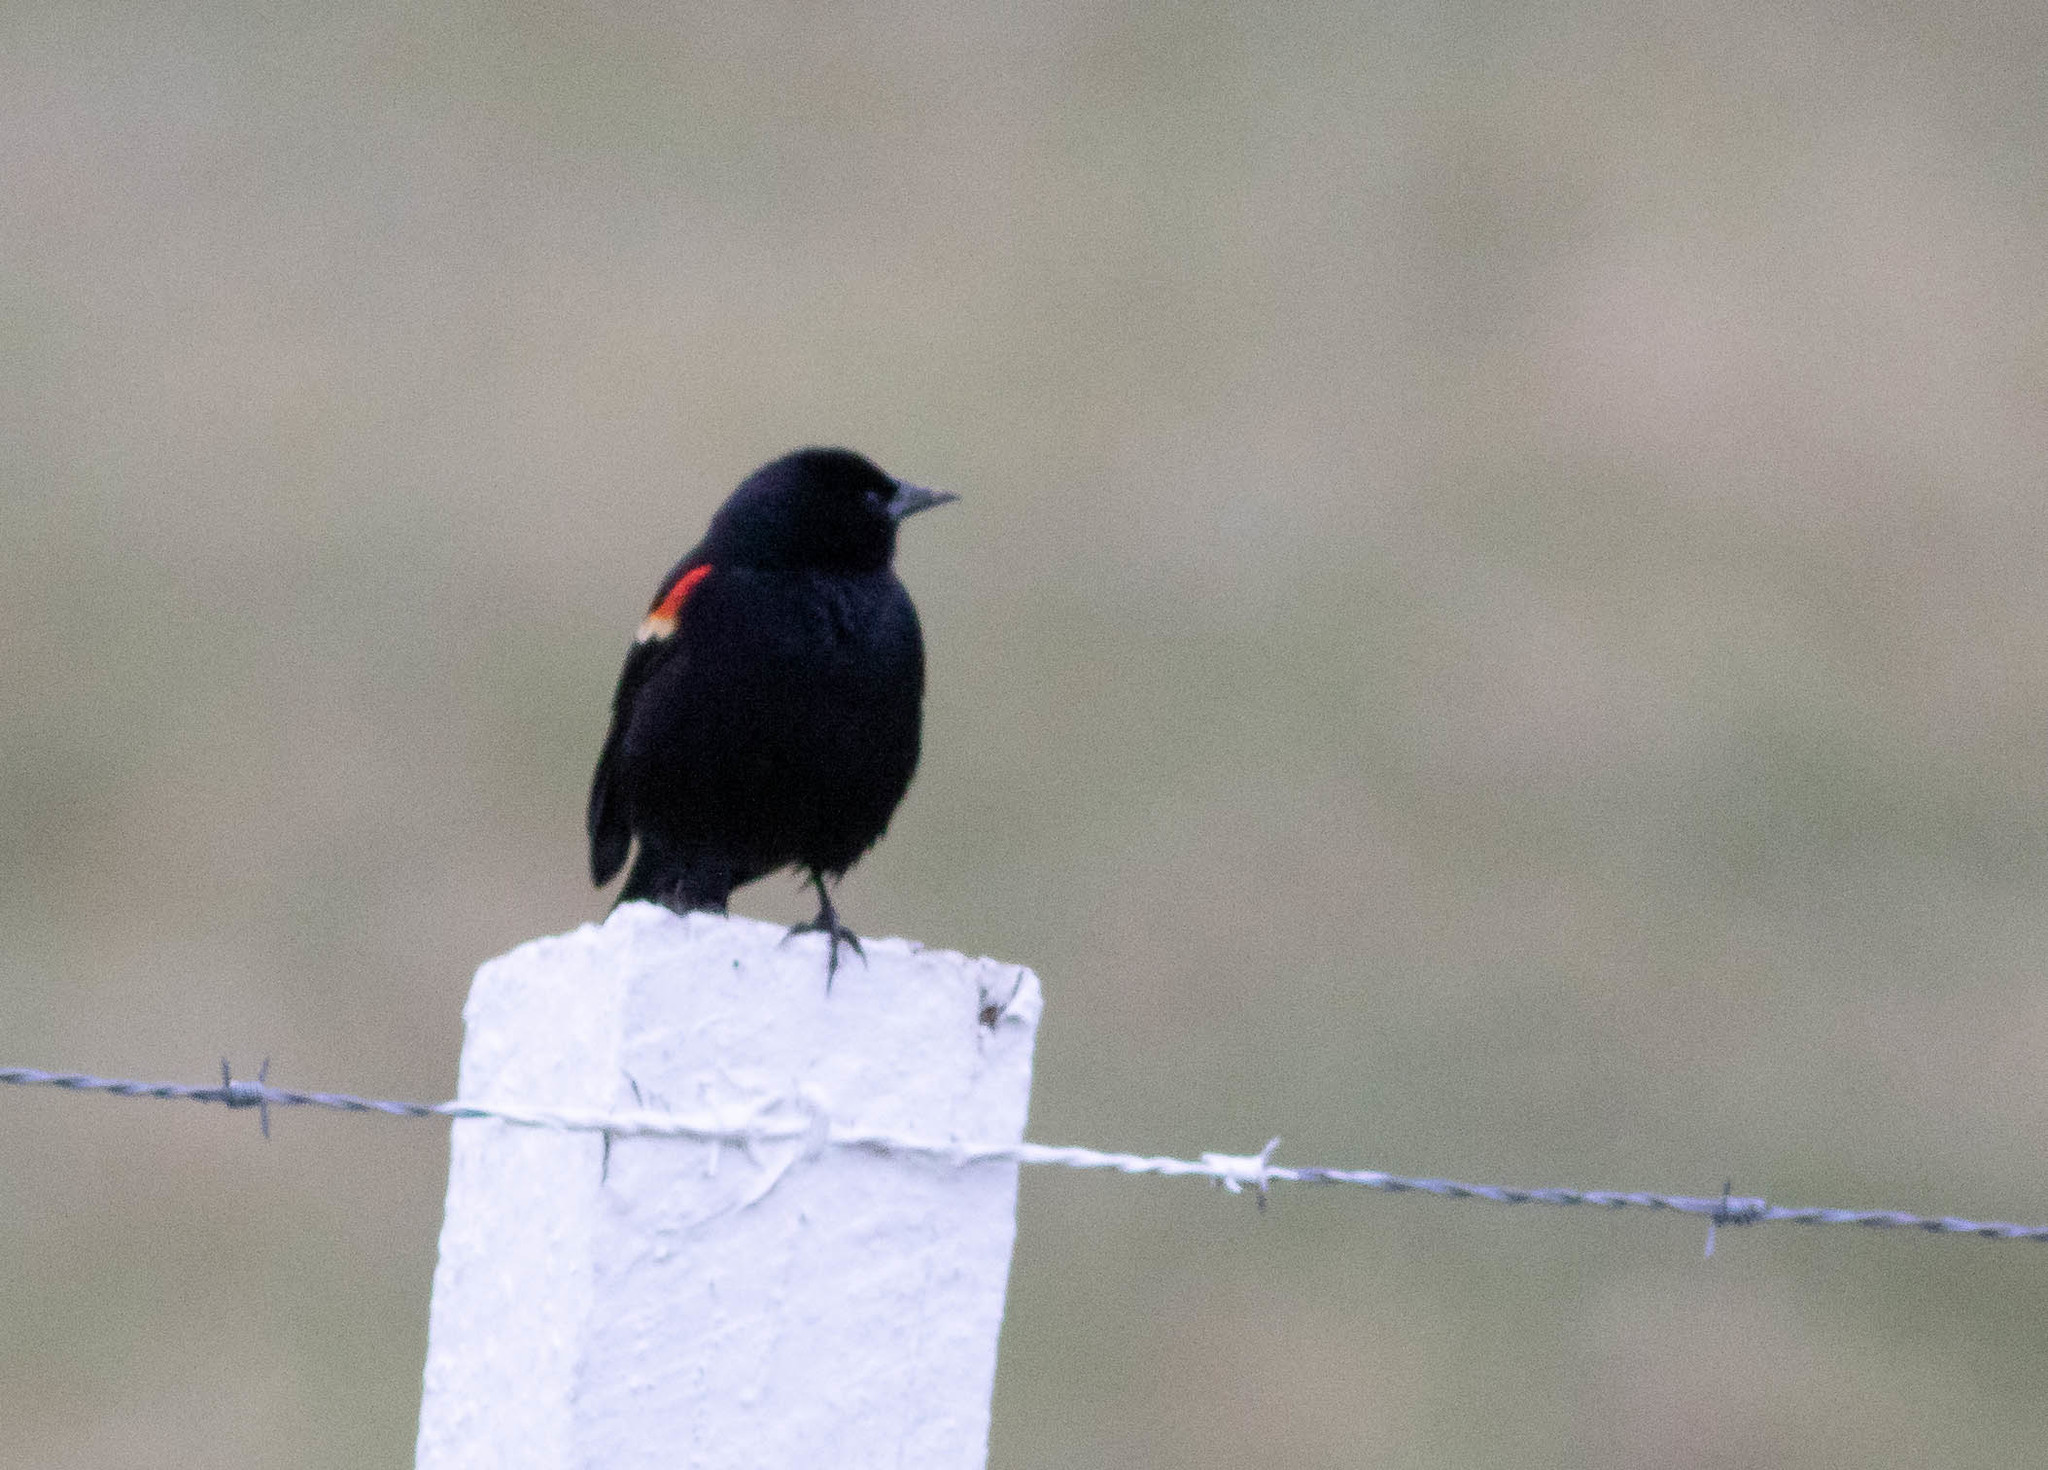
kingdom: Animalia
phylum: Chordata
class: Aves
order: Passeriformes
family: Icteridae
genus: Agelaius
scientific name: Agelaius phoeniceus
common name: Red-winged blackbird
